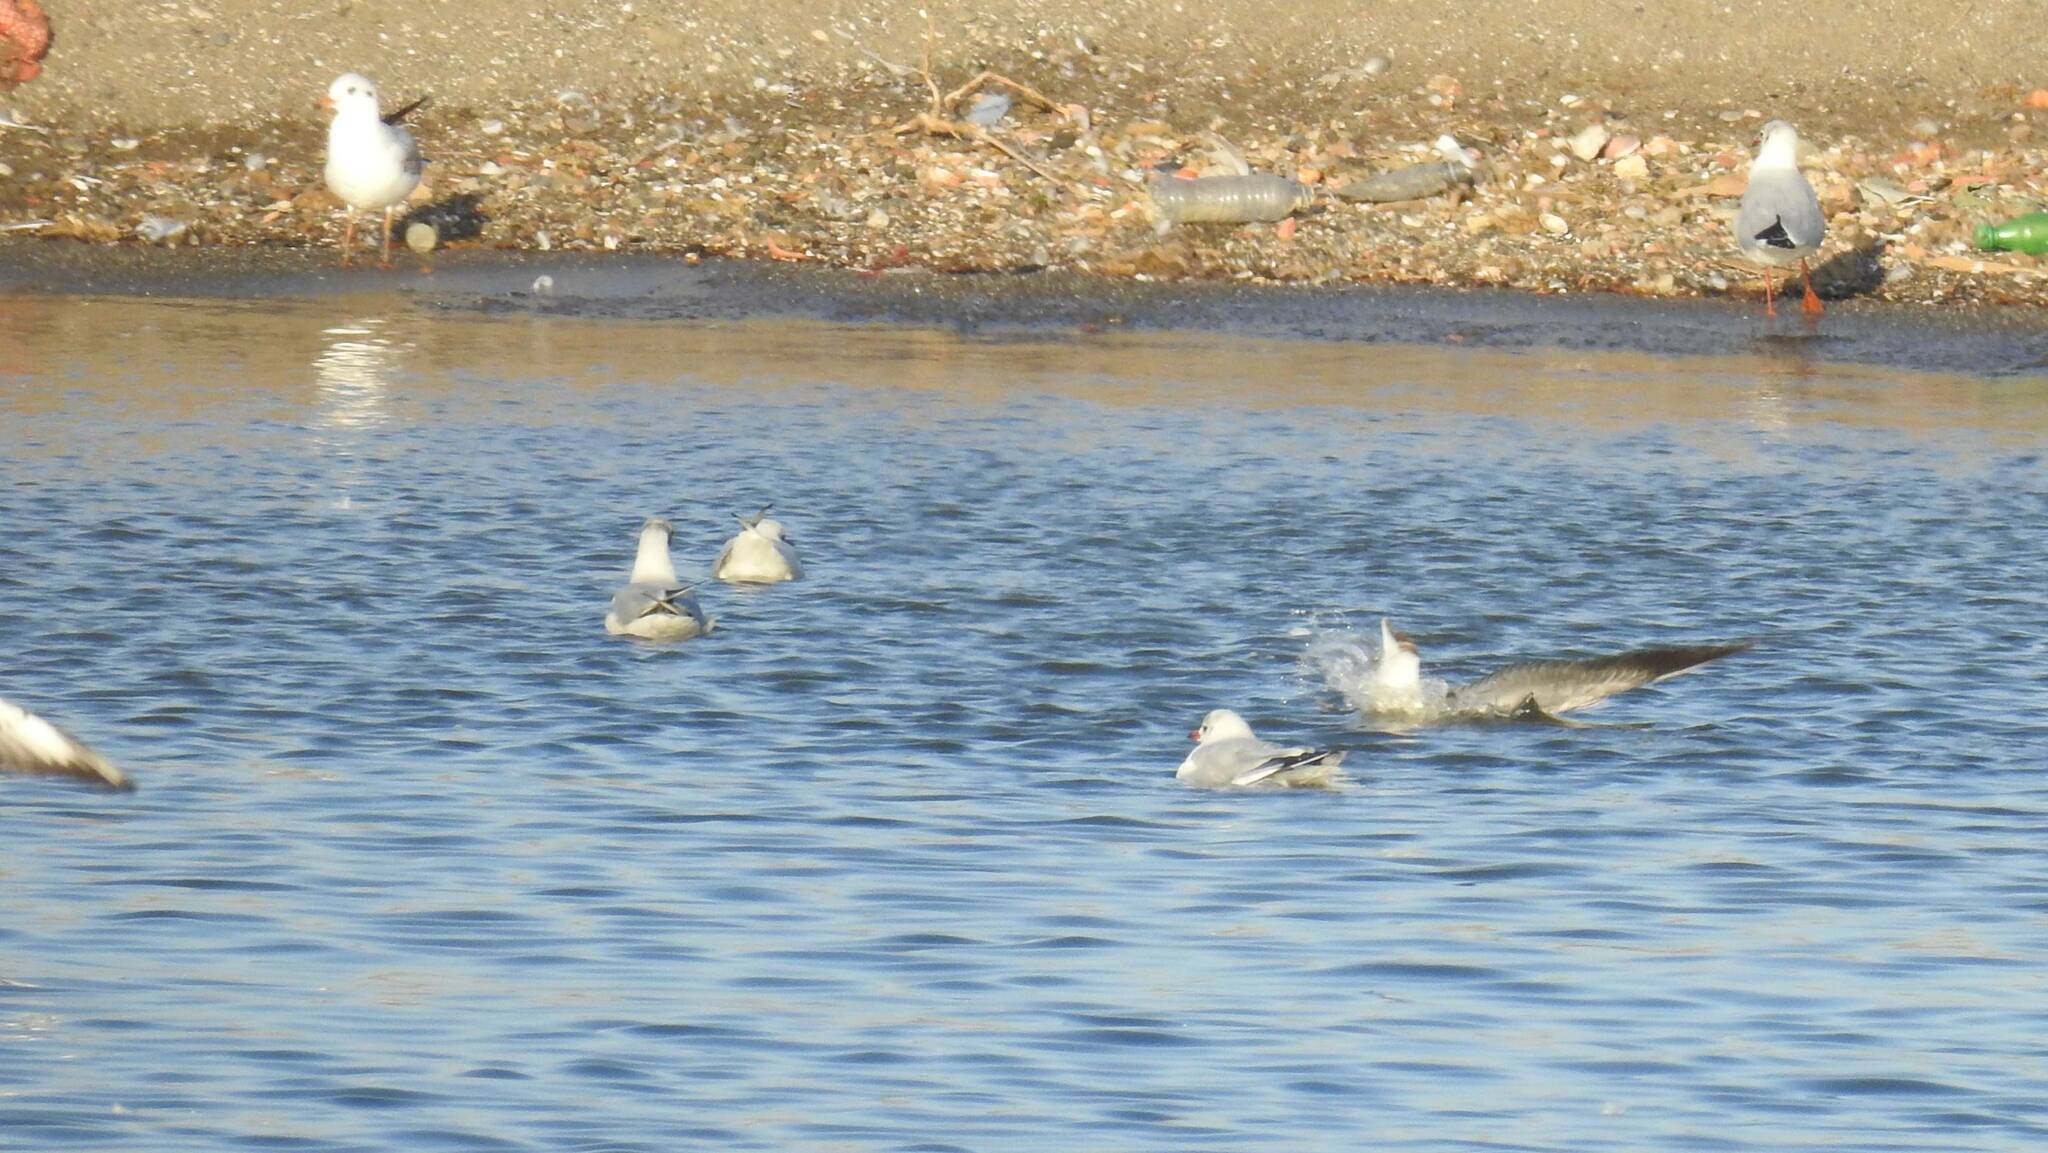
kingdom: Animalia
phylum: Chordata
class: Aves
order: Charadriiformes
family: Laridae
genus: Chroicocephalus
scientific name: Chroicocephalus ridibundus
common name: Black-headed gull
